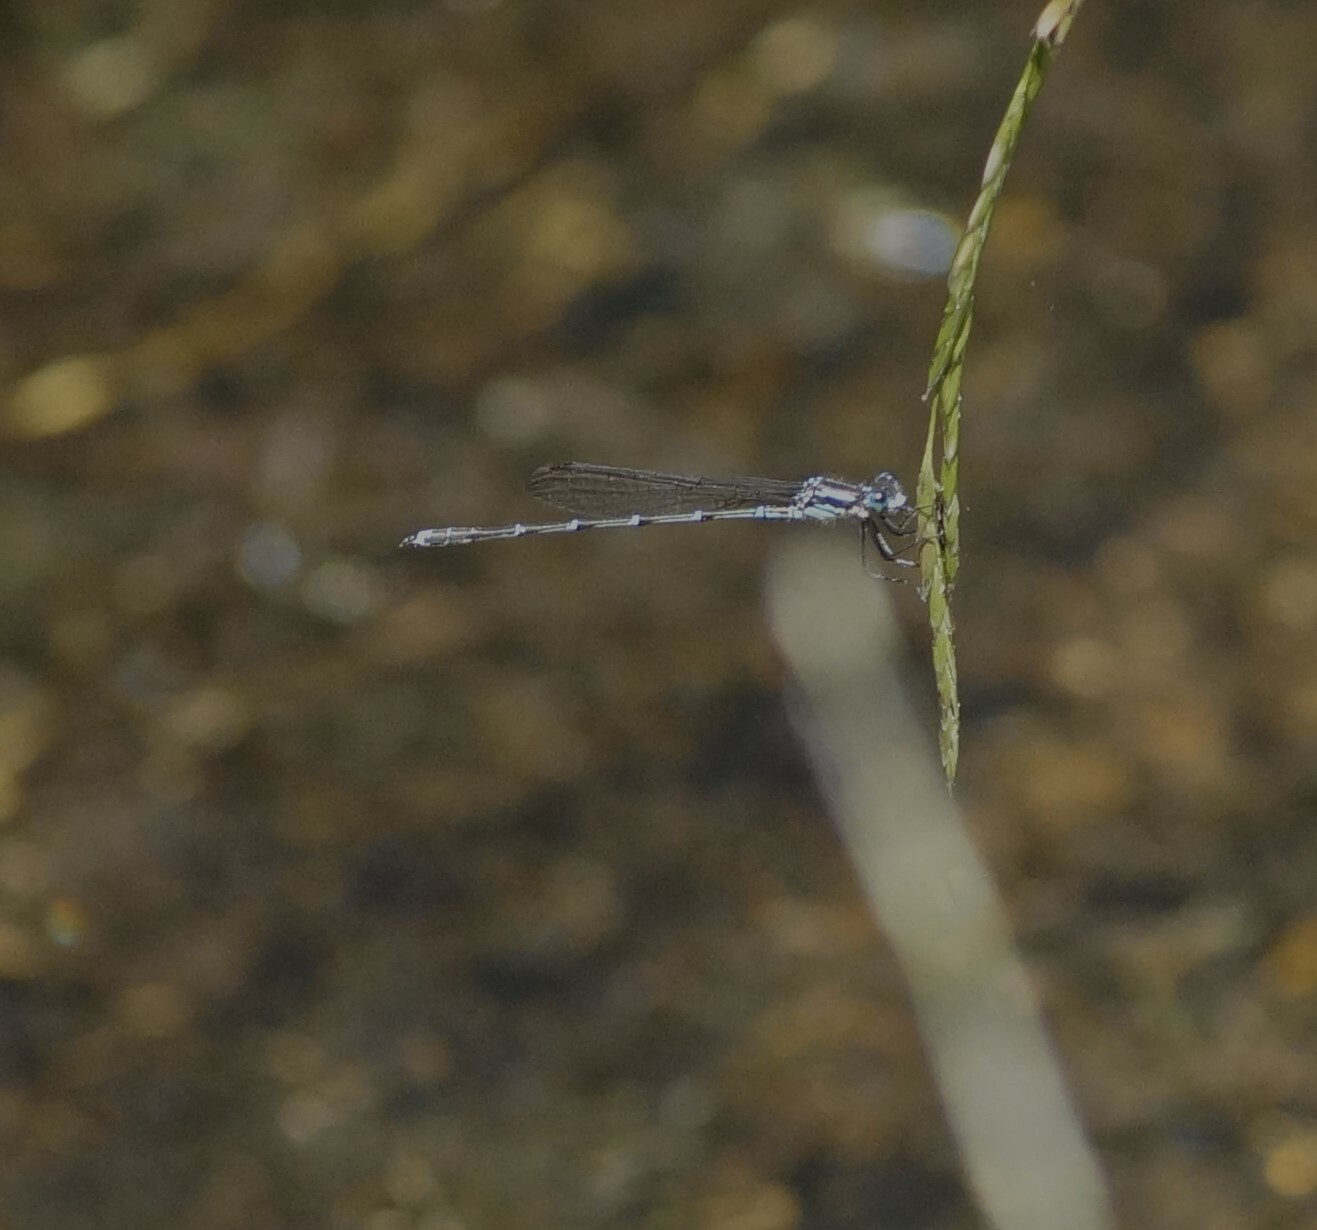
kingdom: Animalia
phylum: Arthropoda
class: Insecta
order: Odonata
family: Lestidae
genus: Austrolestes
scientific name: Austrolestes colensonis
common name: Blue damselfly
